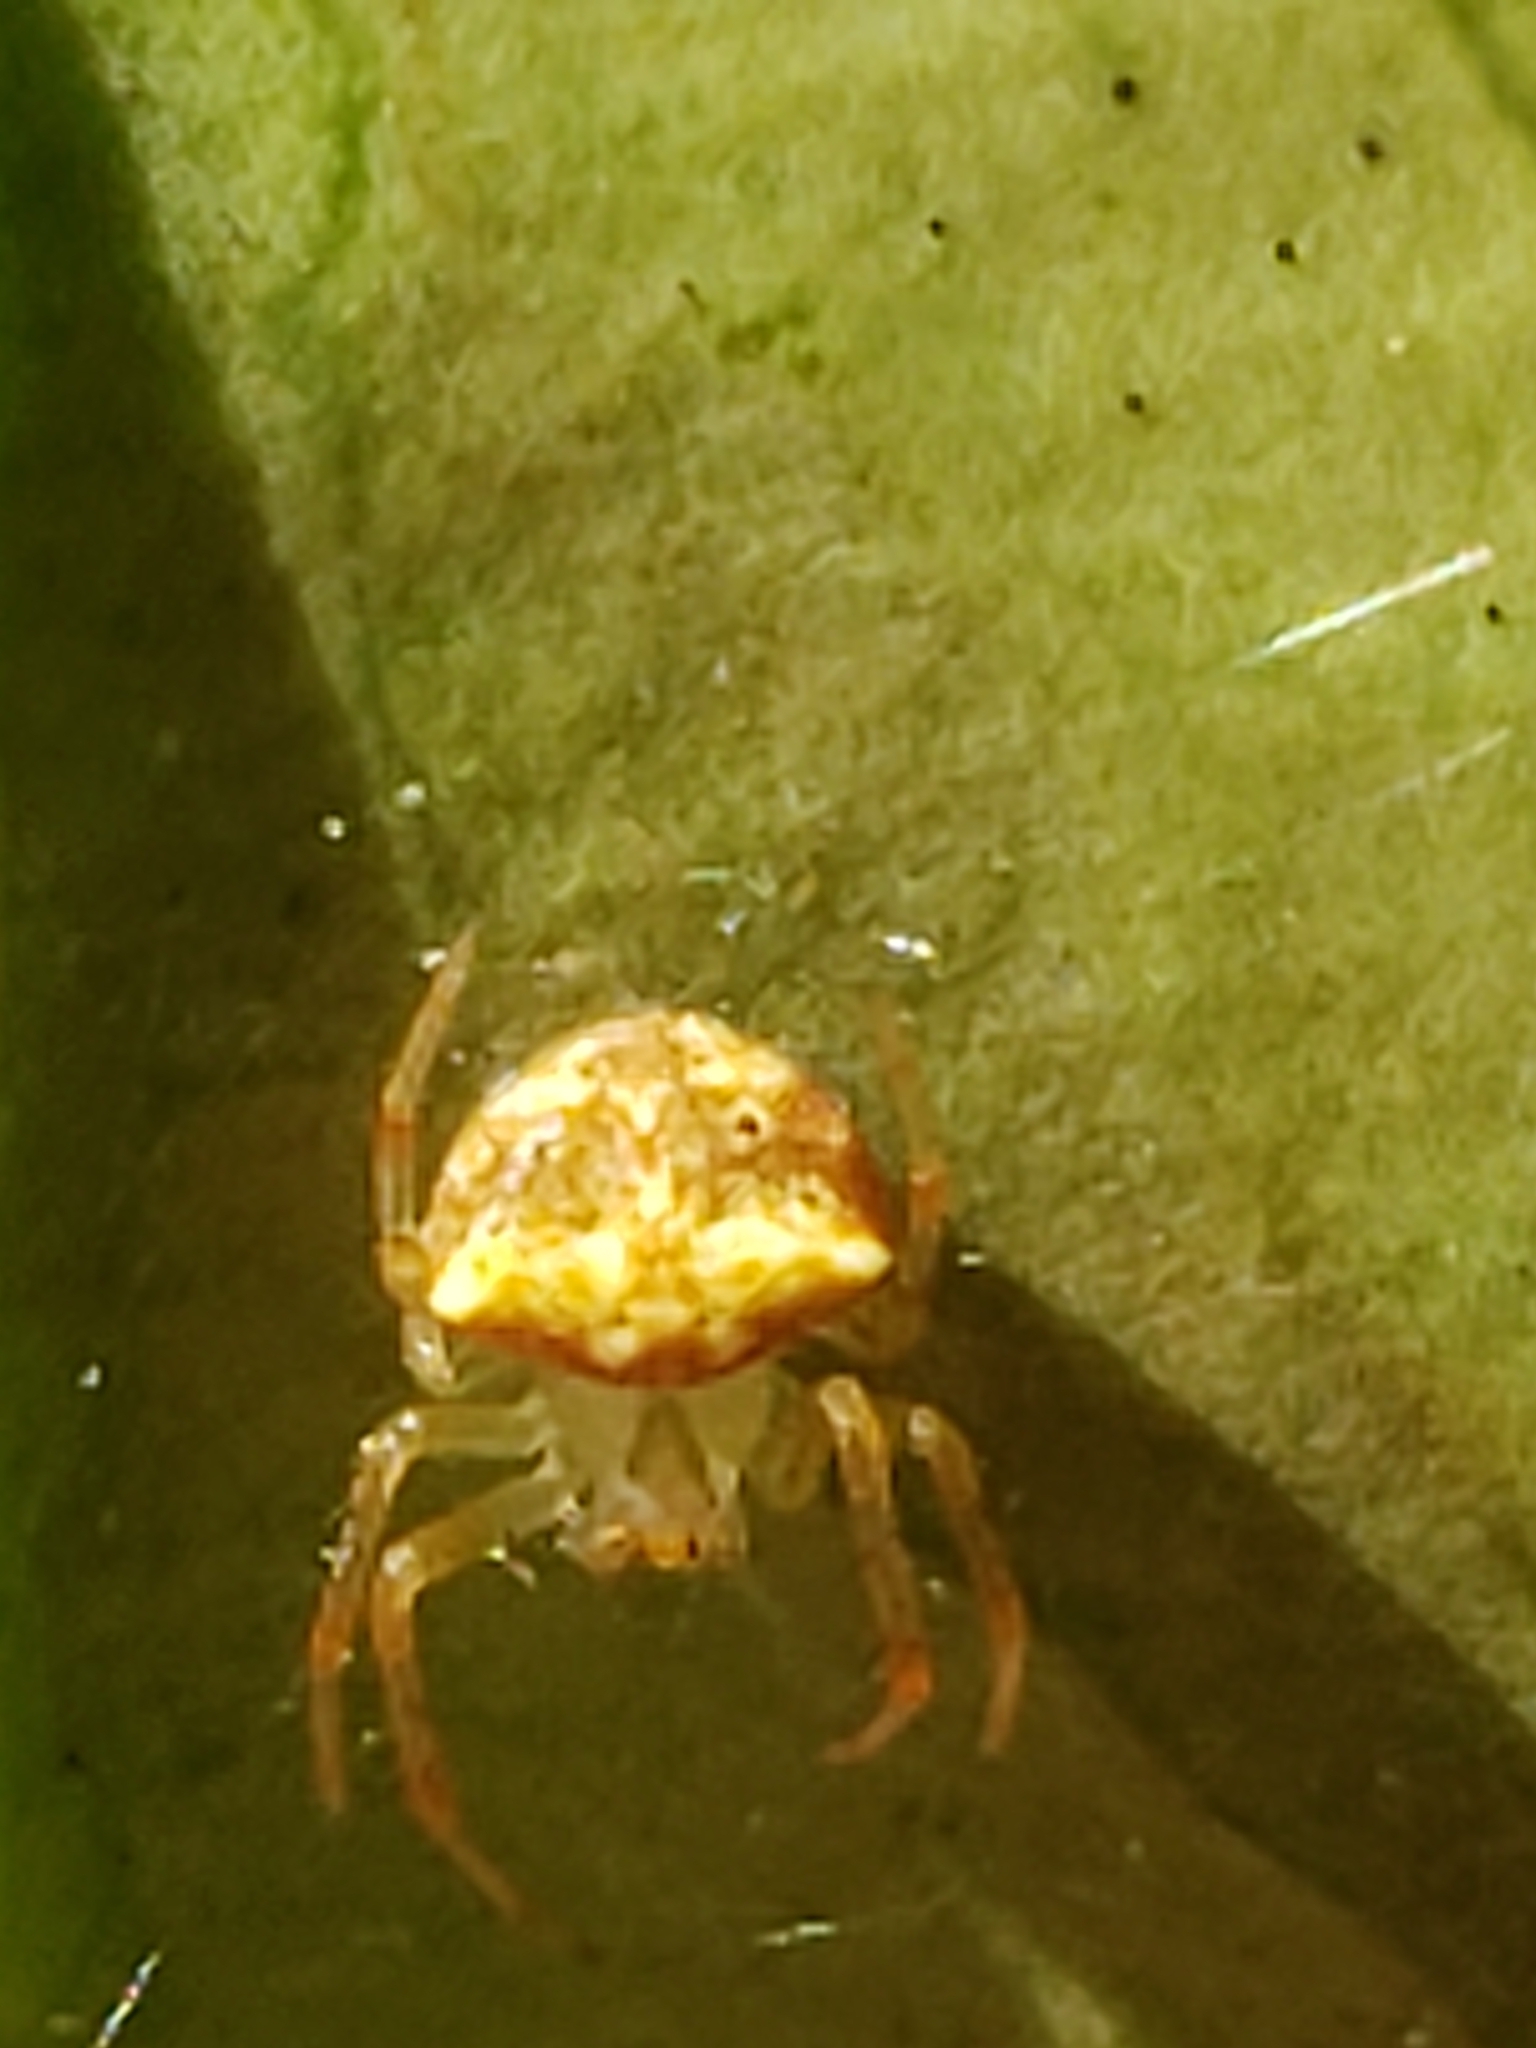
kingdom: Animalia
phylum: Arthropoda
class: Arachnida
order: Araneae
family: Araneidae
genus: Araneus
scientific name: Araneus miniatus
